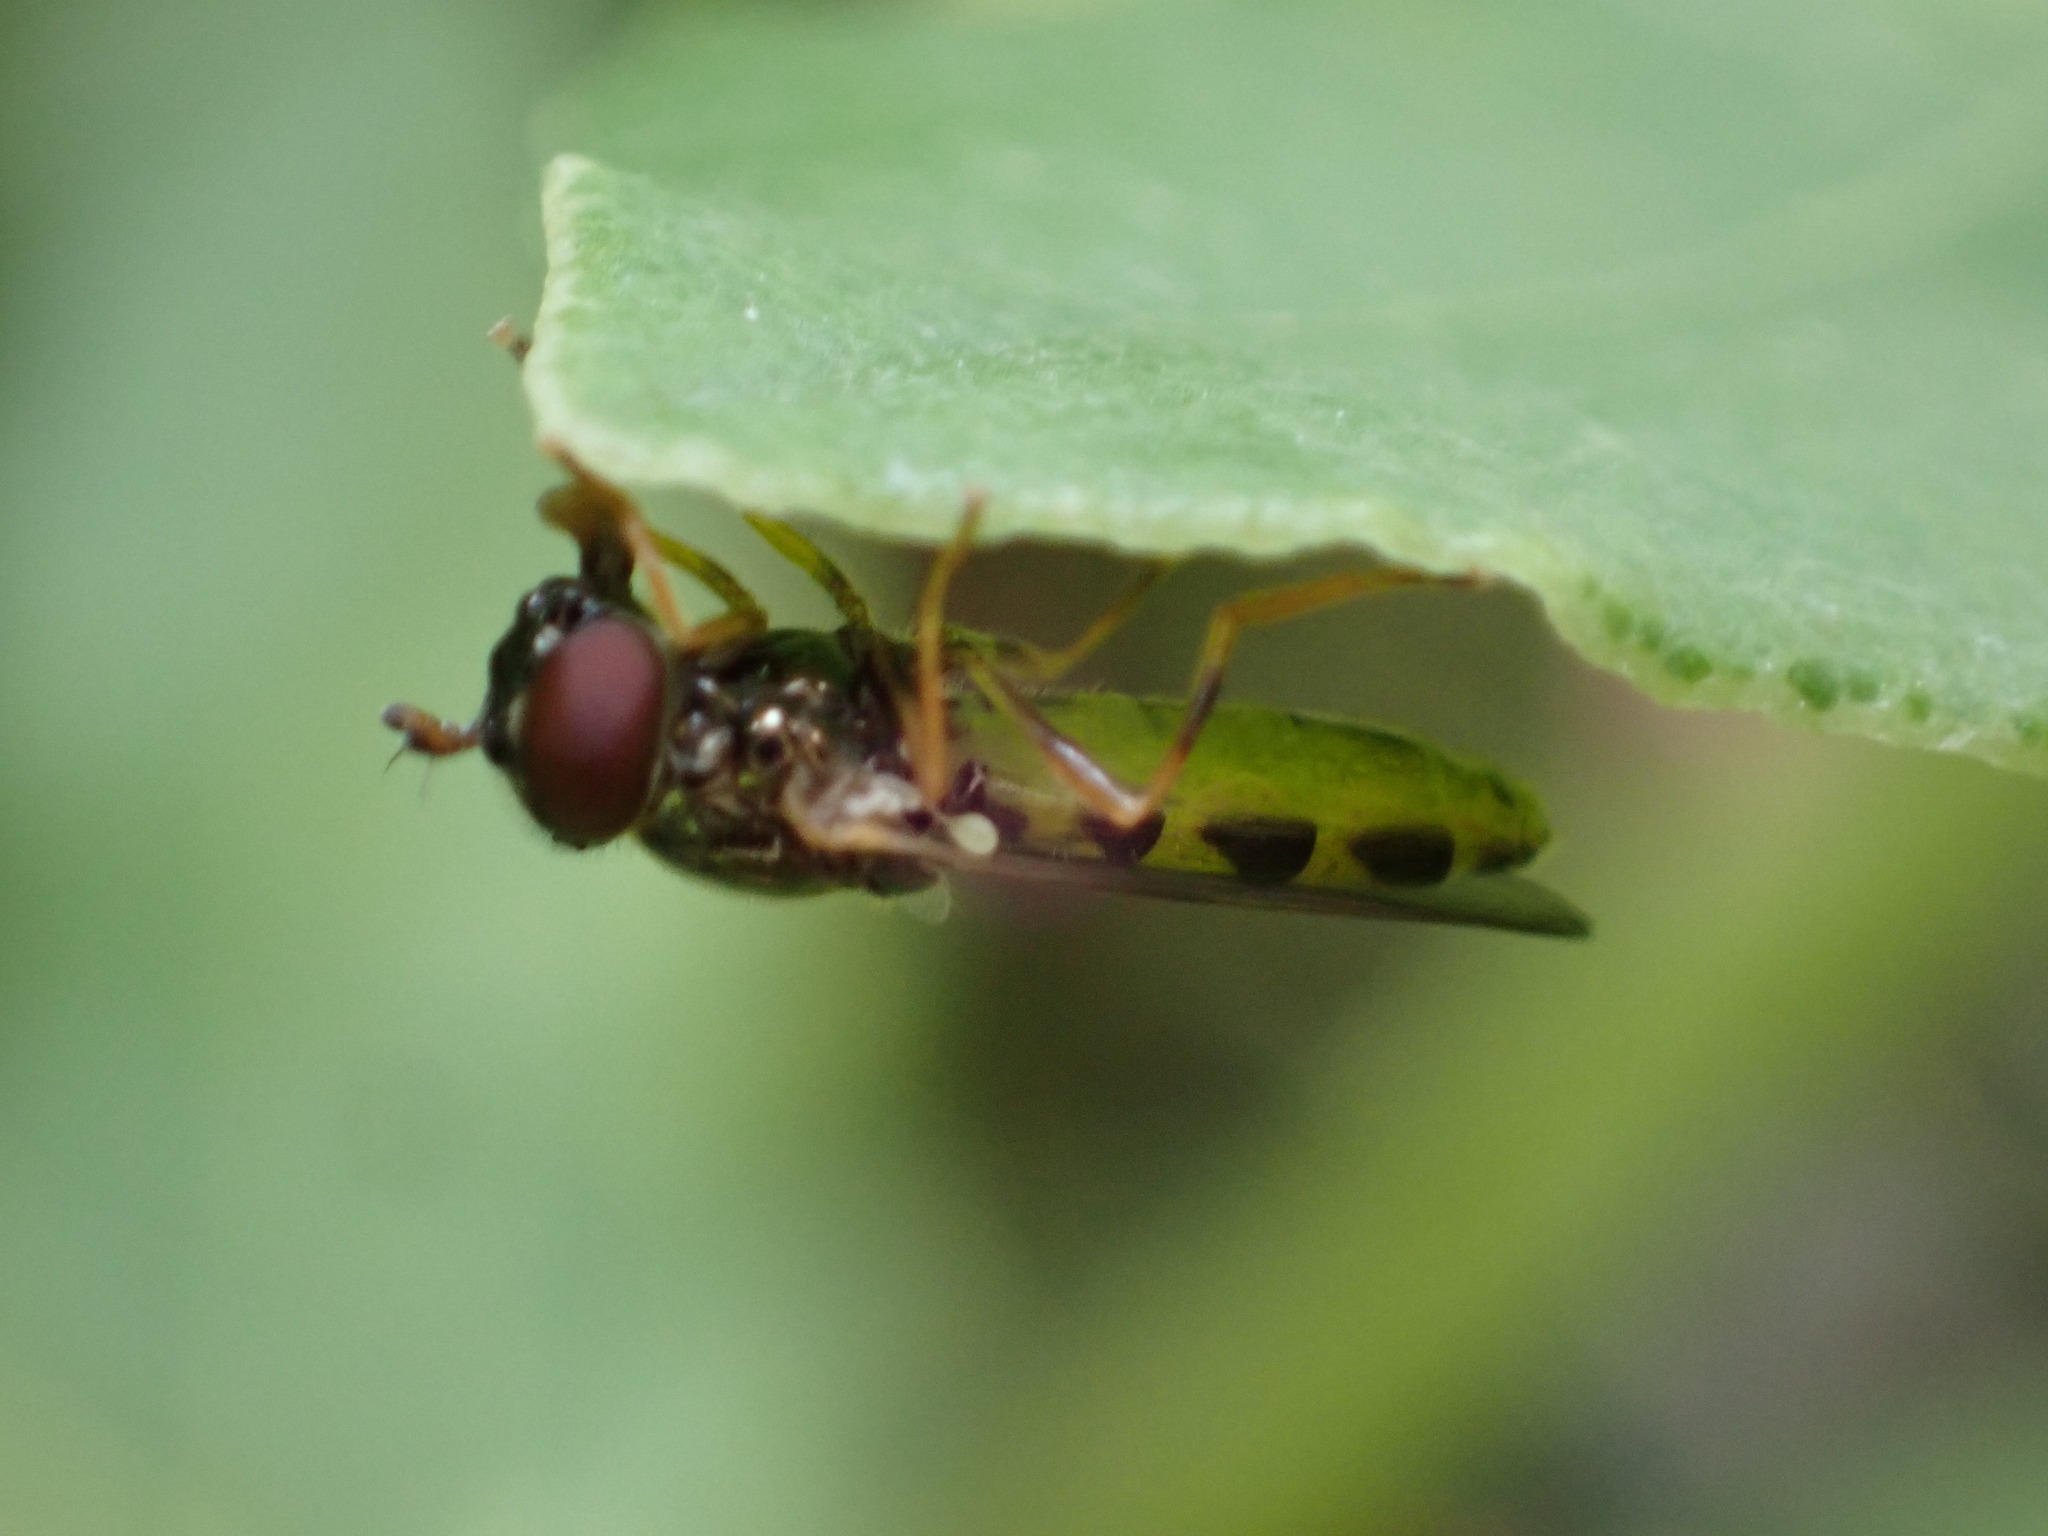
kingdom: Animalia
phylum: Arthropoda
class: Insecta
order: Diptera
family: Syrphidae
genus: Melanostoma
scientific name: Melanostoma mellina
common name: Hover fly
